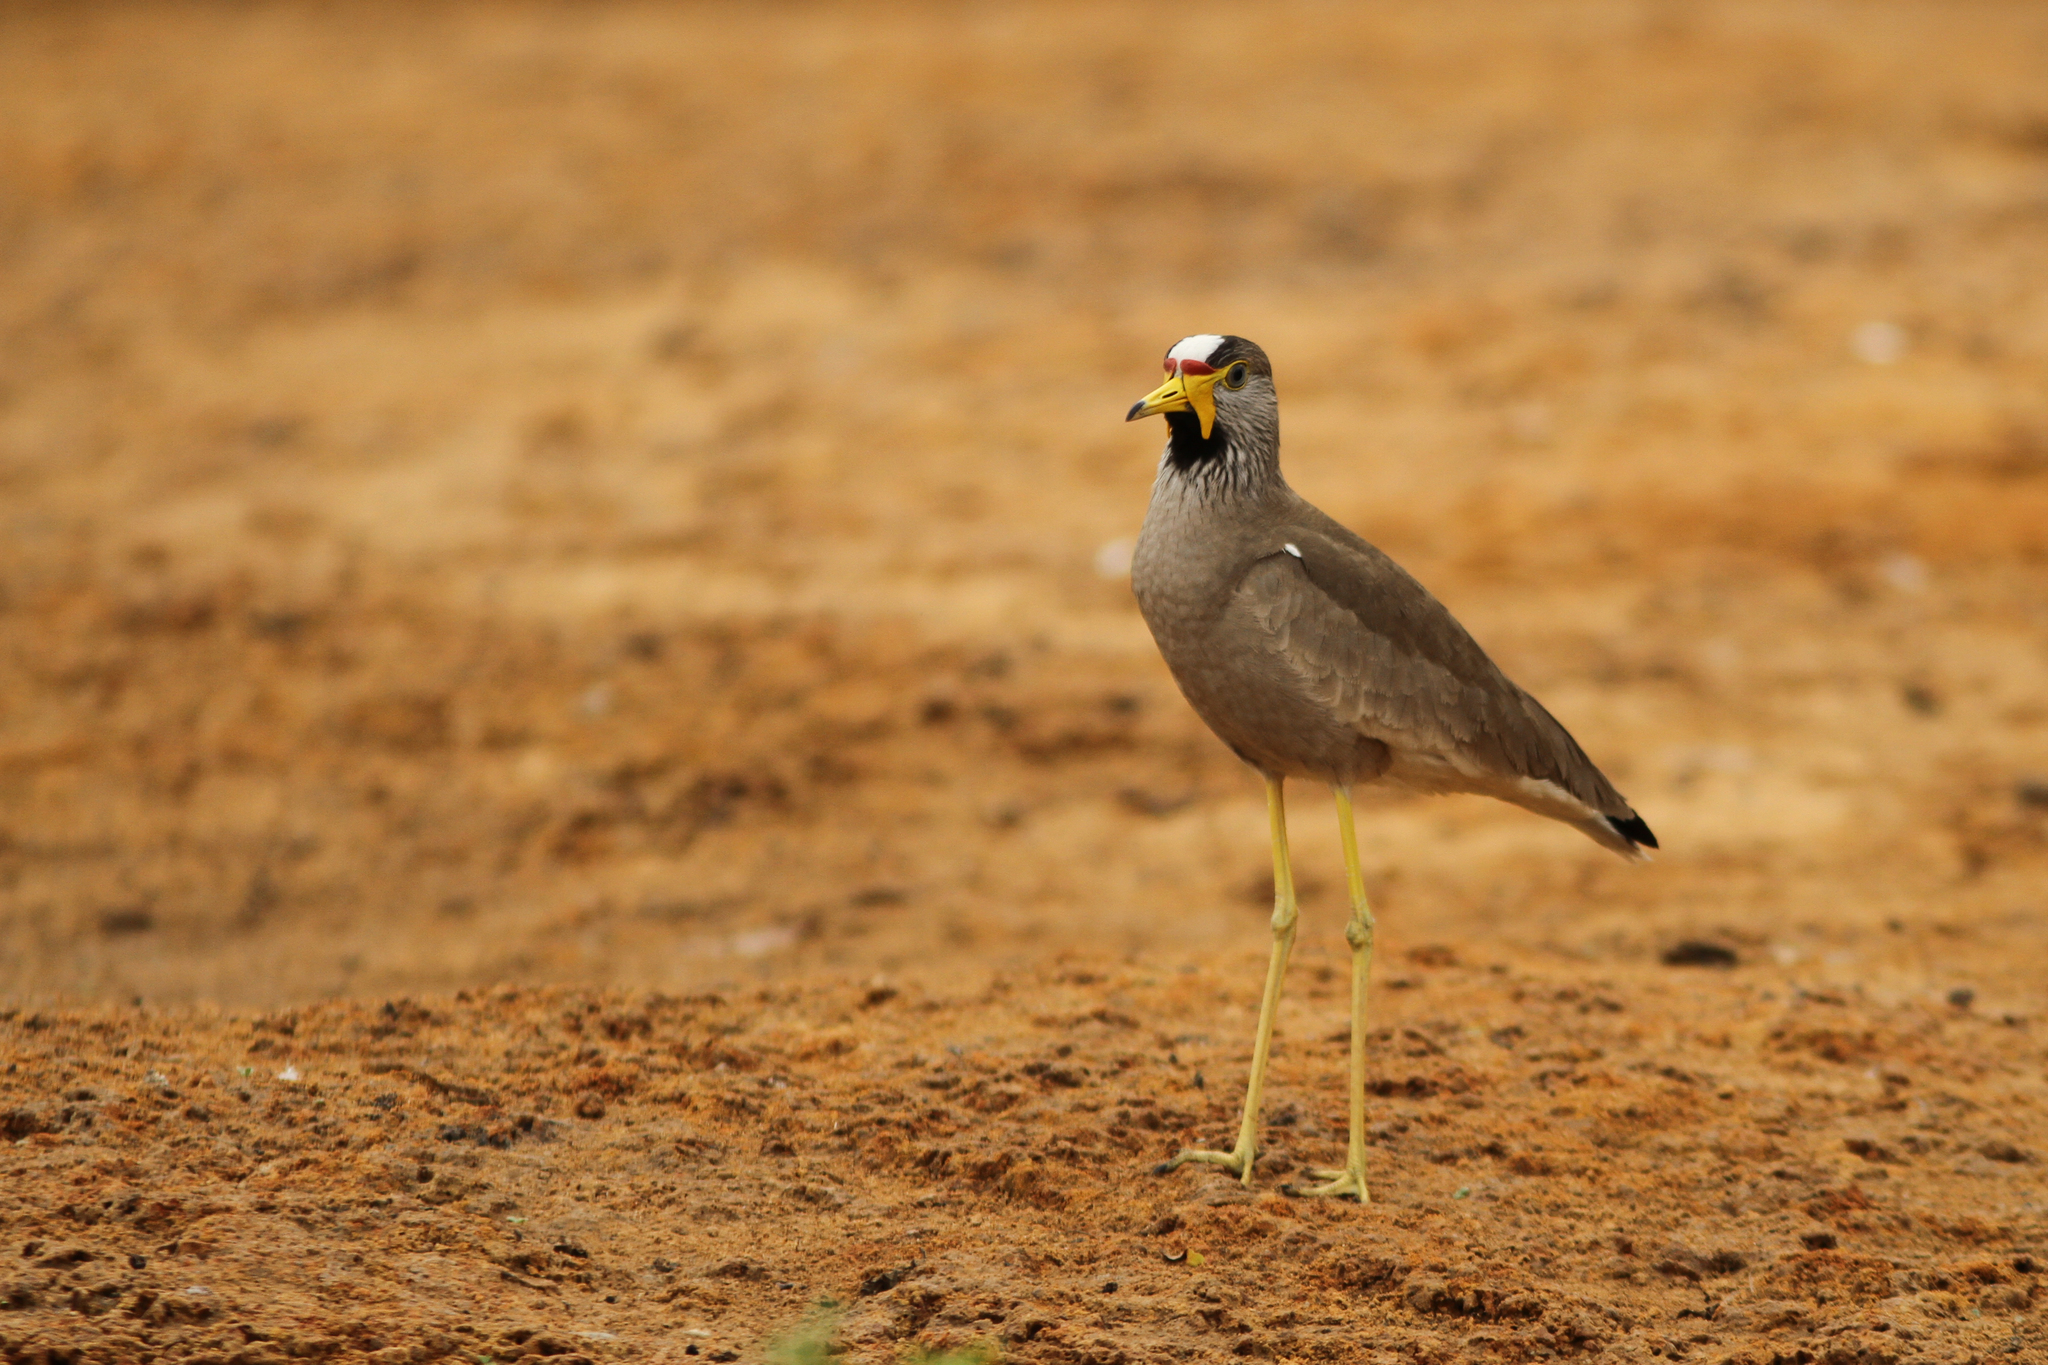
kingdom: Animalia
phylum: Chordata
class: Aves
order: Charadriiformes
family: Charadriidae
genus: Vanellus
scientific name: Vanellus senegallus
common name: African wattled lapwing
